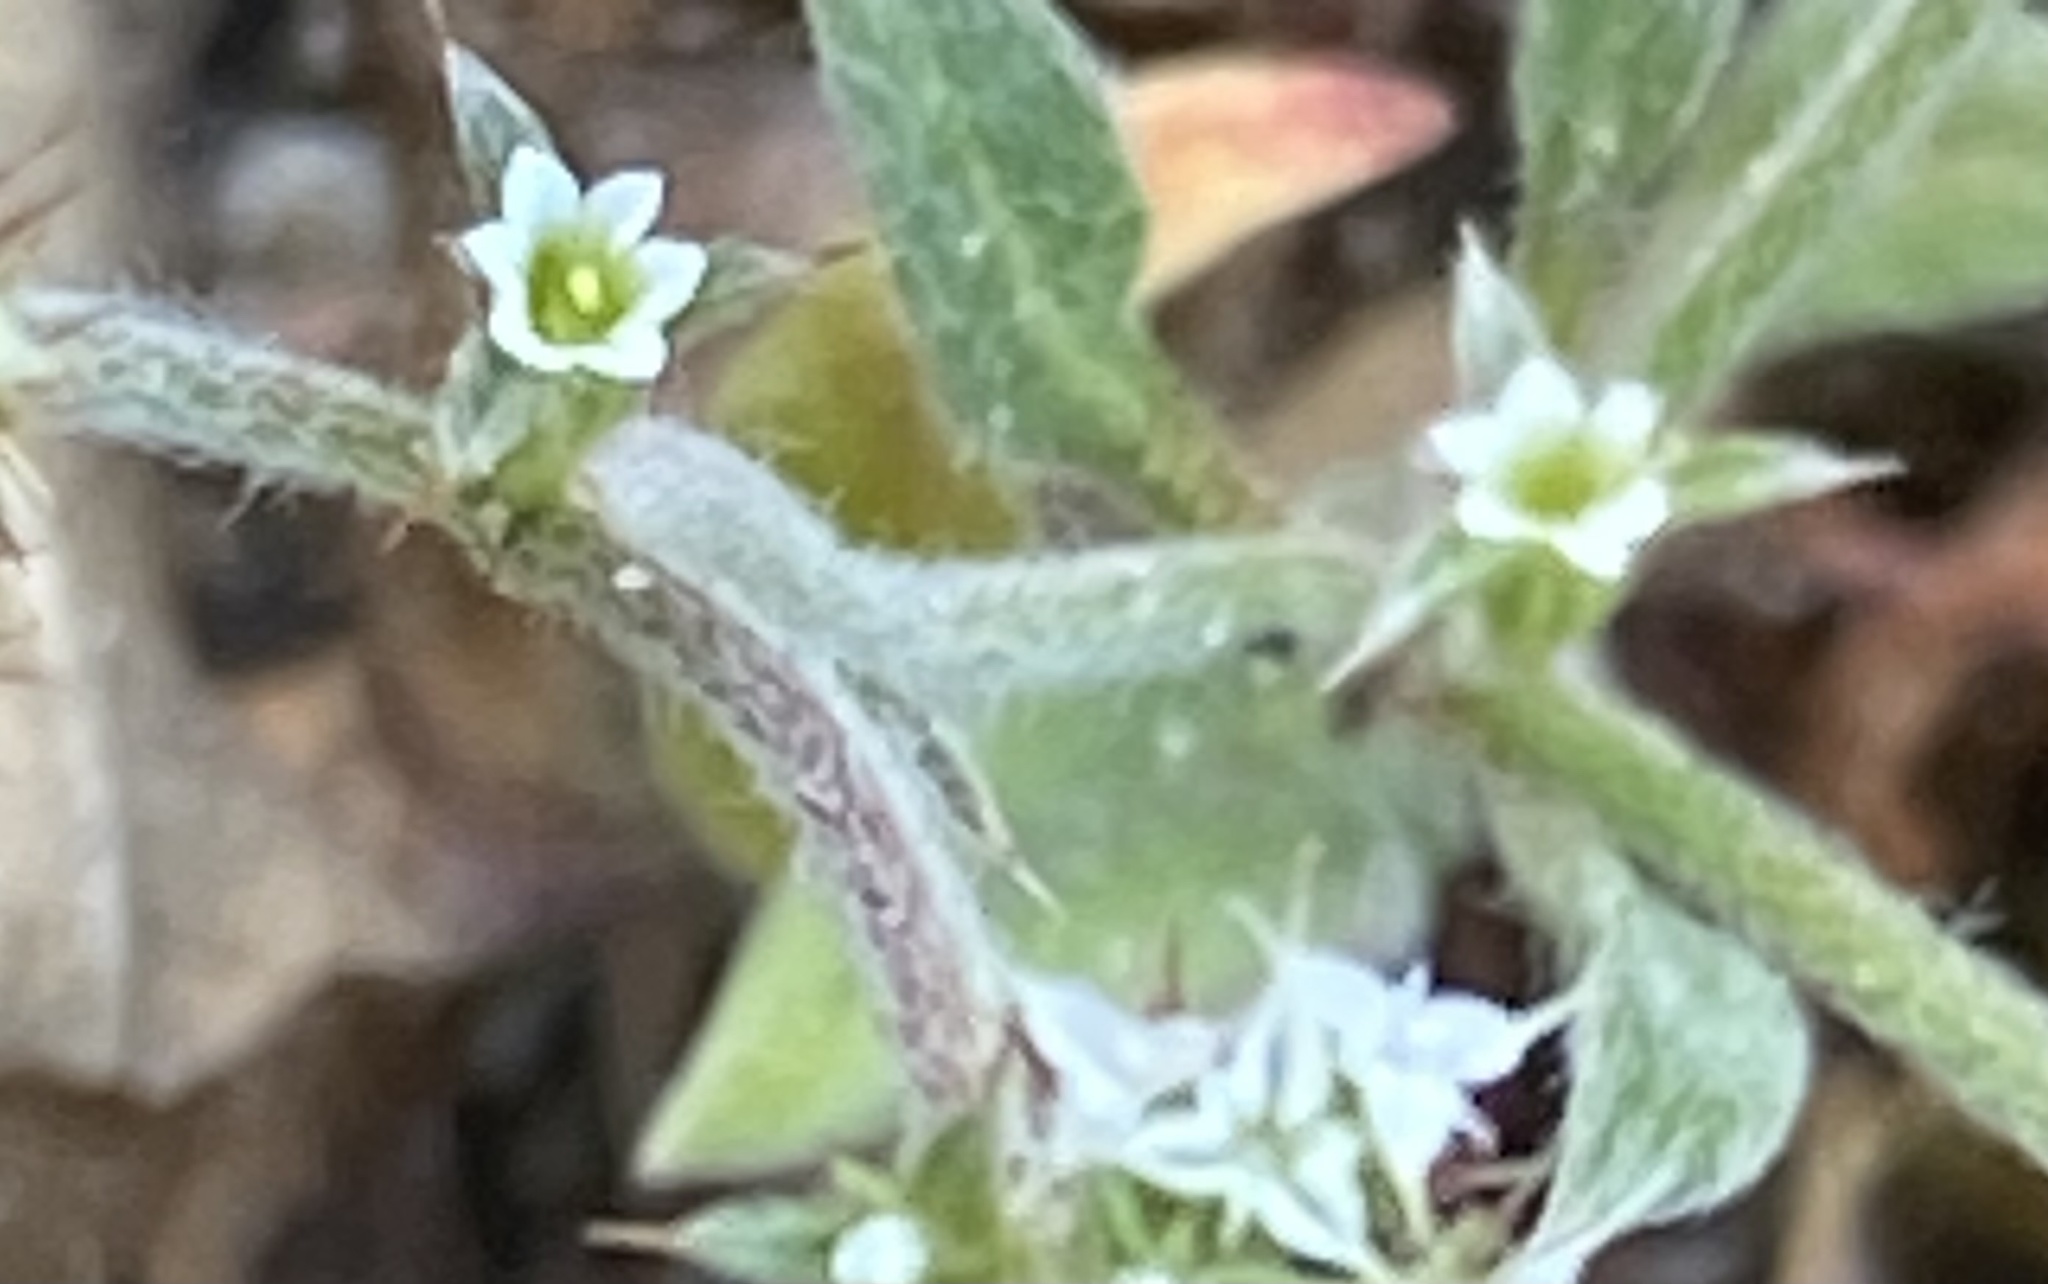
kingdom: Plantae
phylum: Tracheophyta
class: Magnoliopsida
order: Caryophyllales
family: Polygonaceae
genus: Chorizanthe
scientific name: Chorizanthe pungens
